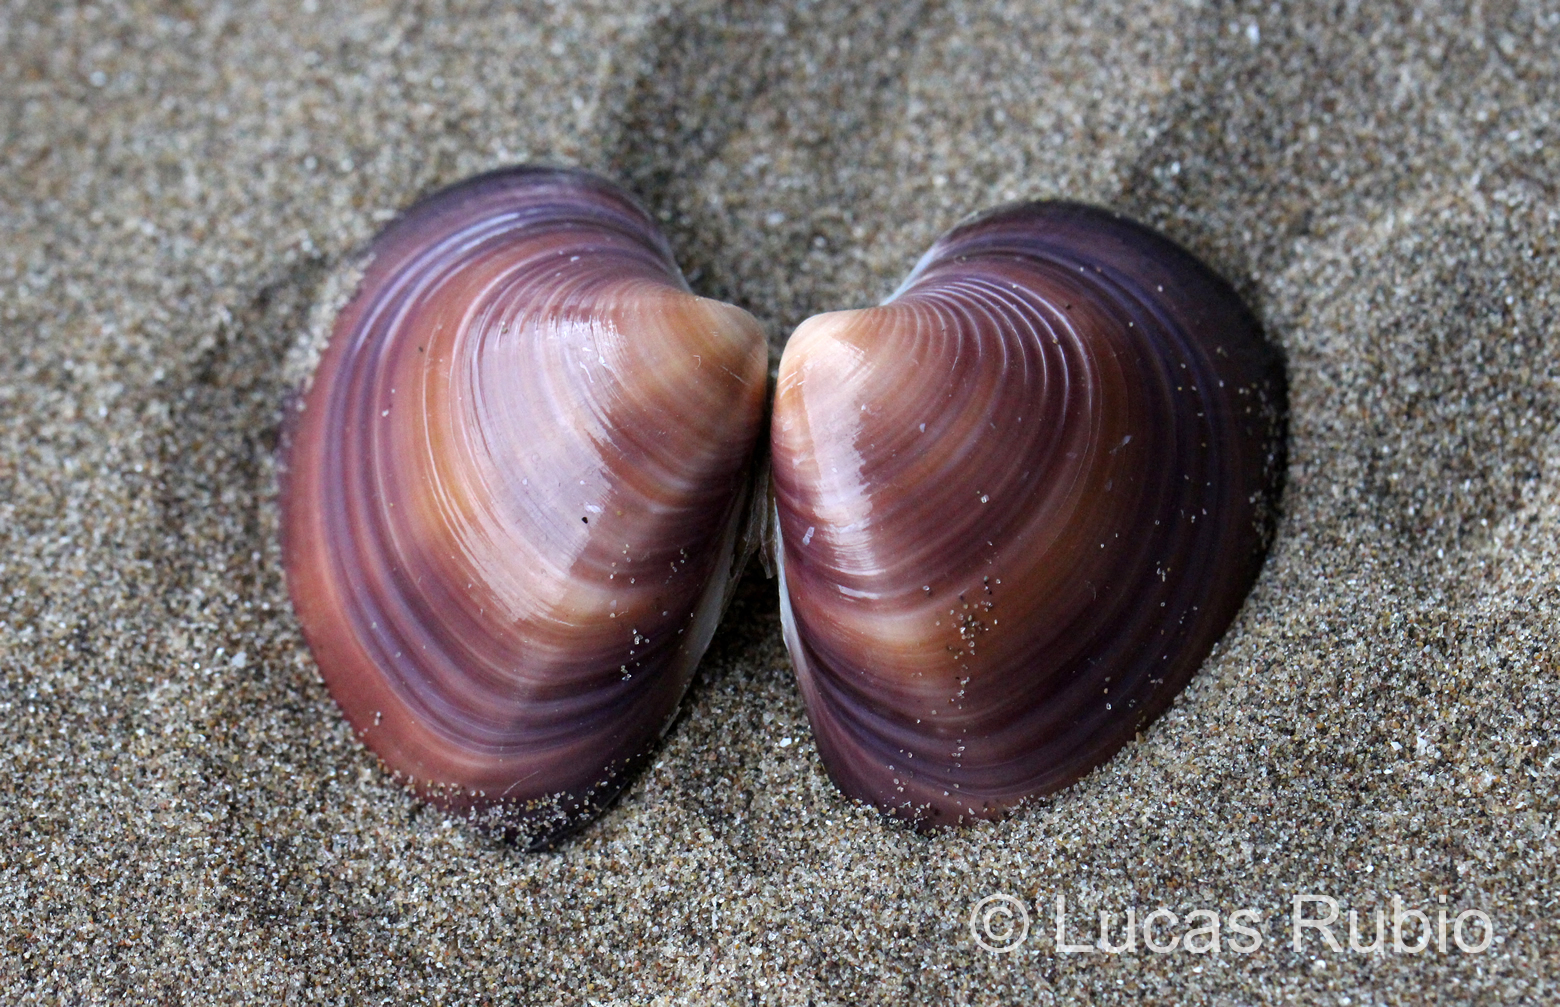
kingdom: Animalia
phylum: Mollusca
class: Bivalvia
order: Venerida
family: Veneridae
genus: Eucallista
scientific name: Eucallista purpurata
